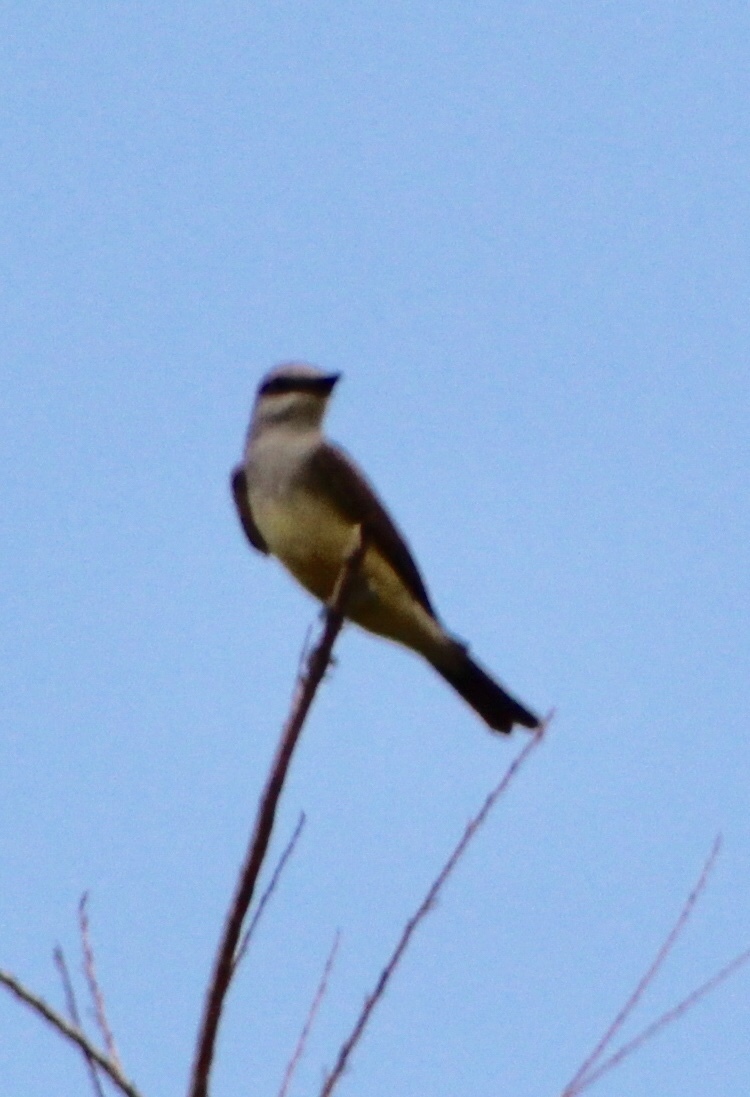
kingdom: Animalia
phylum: Chordata
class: Aves
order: Passeriformes
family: Tyrannidae
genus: Tyrannus
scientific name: Tyrannus verticalis
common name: Western kingbird
